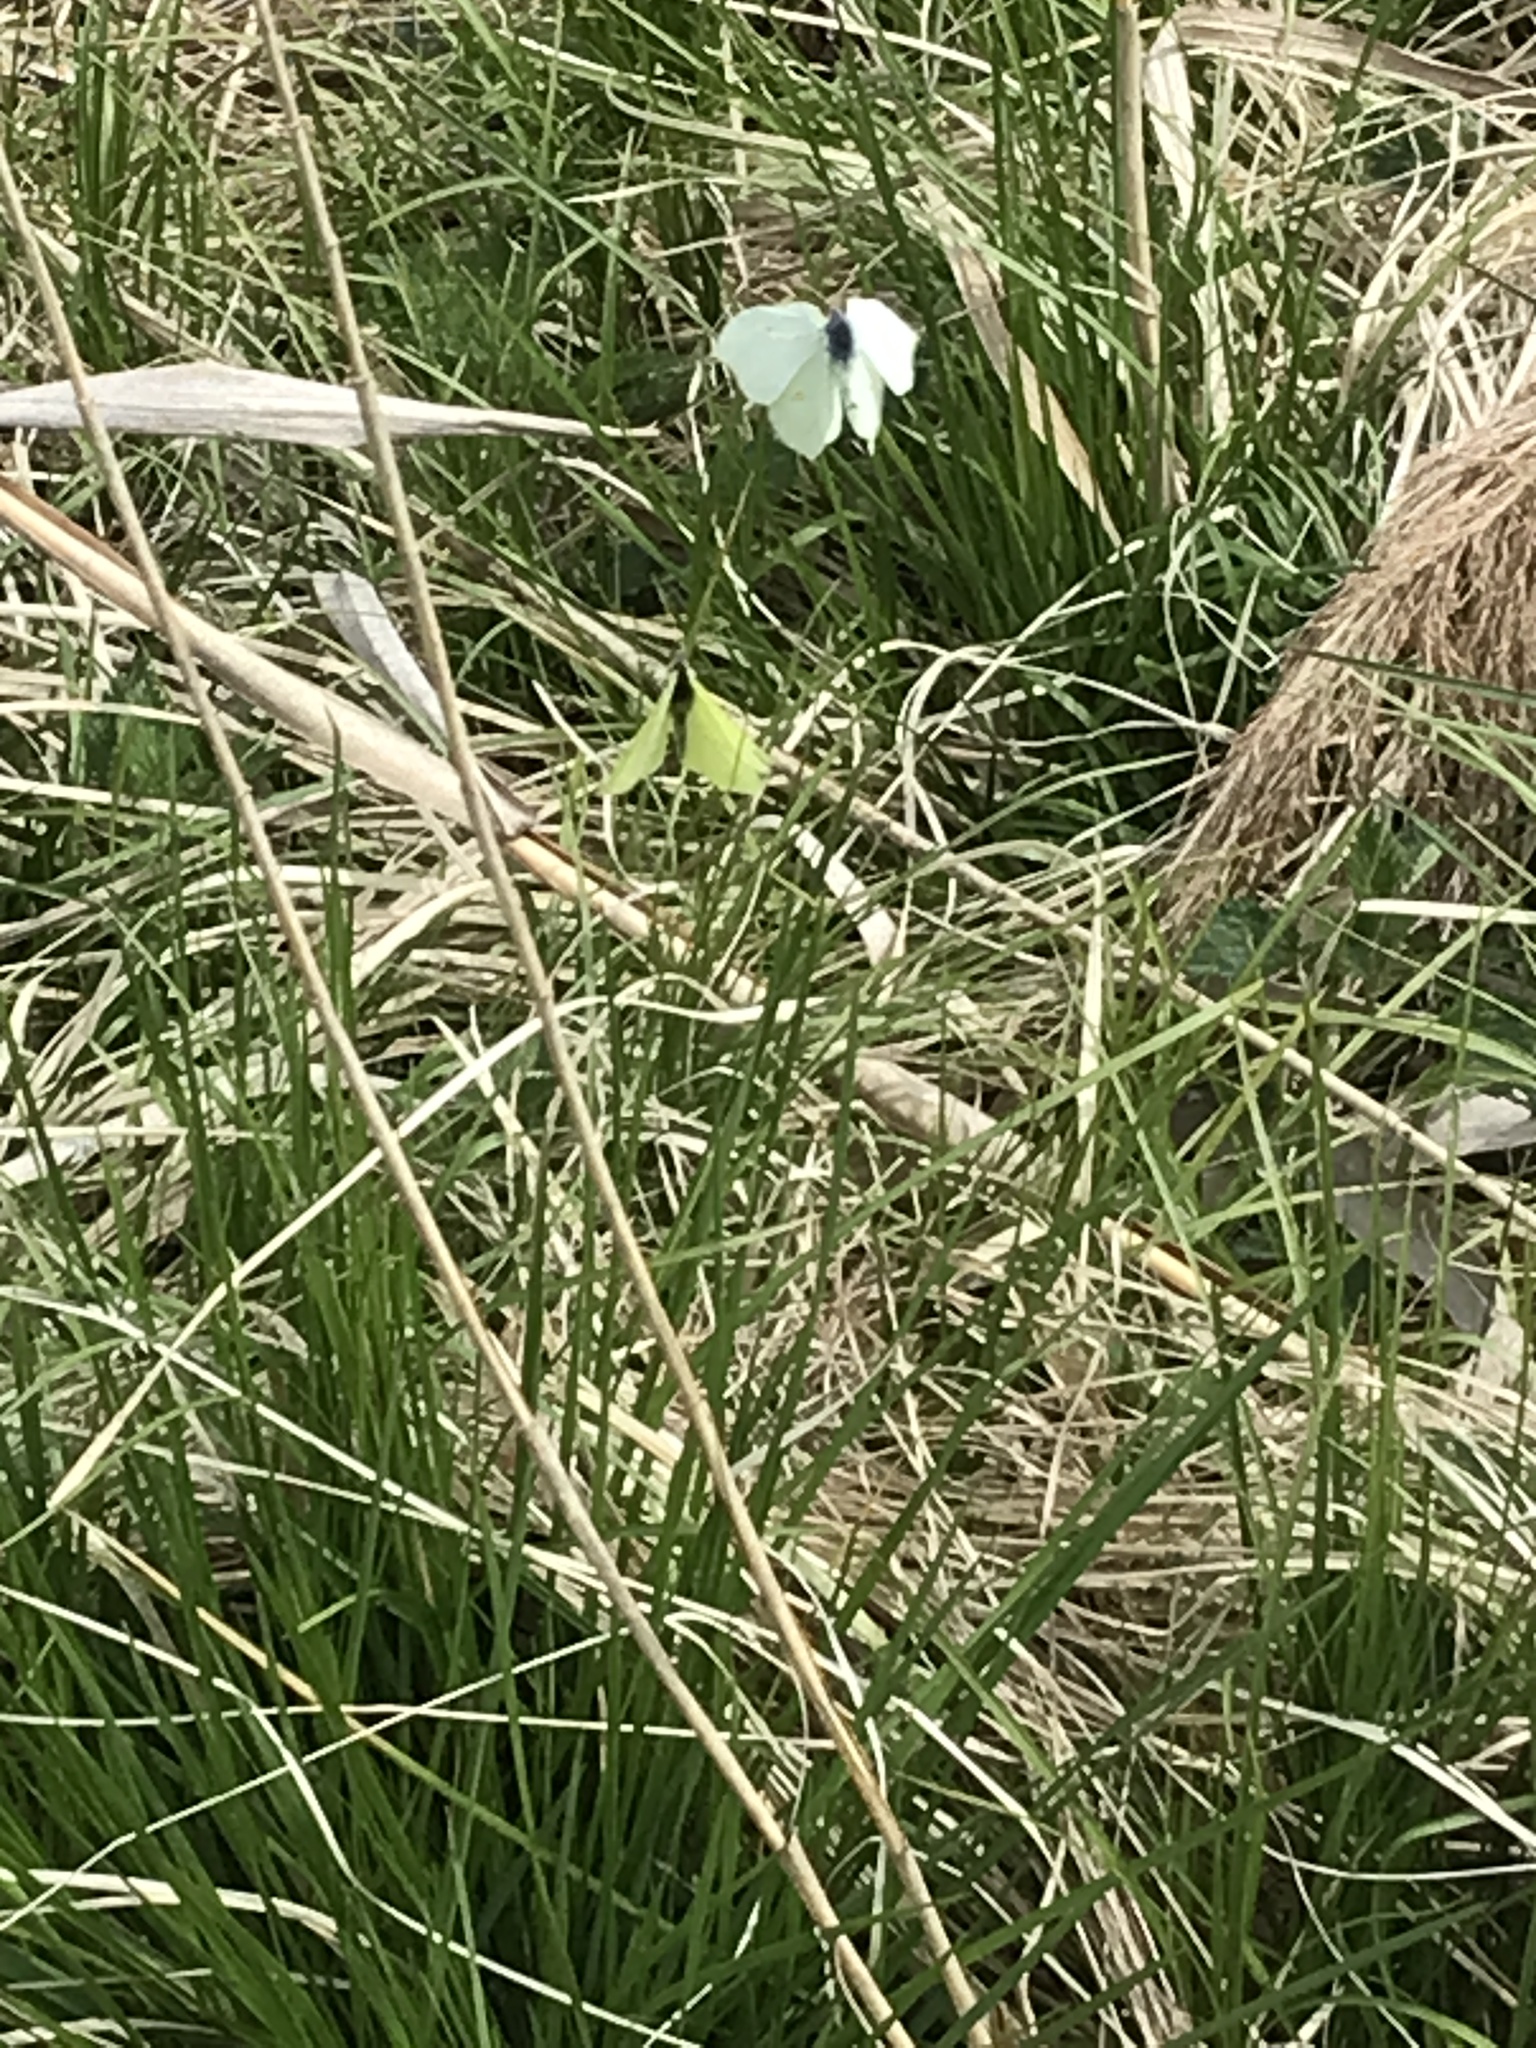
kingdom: Animalia
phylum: Arthropoda
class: Insecta
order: Lepidoptera
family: Pieridae
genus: Gonepteryx
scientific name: Gonepteryx rhamni
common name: Brimstone
